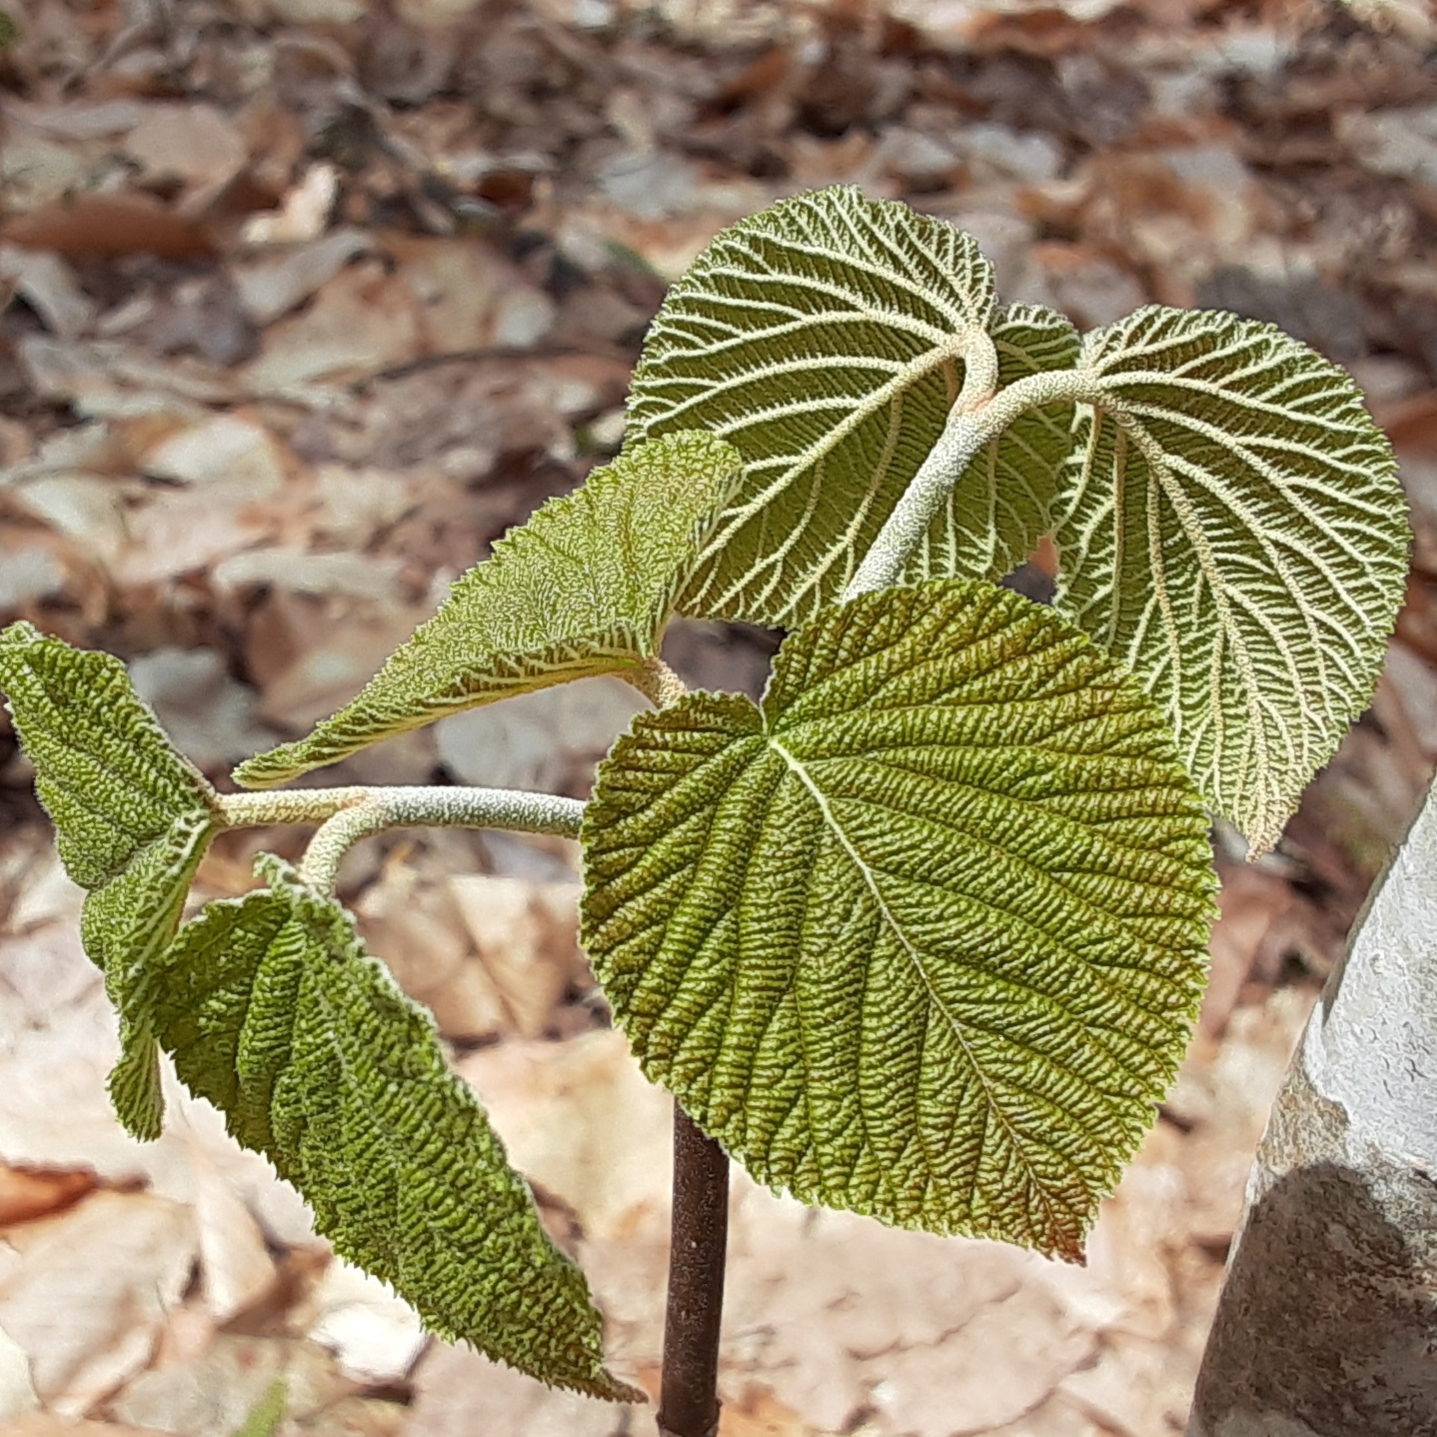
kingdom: Plantae
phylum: Tracheophyta
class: Magnoliopsida
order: Dipsacales
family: Viburnaceae
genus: Viburnum
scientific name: Viburnum lantanoides
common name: Hobblebush
